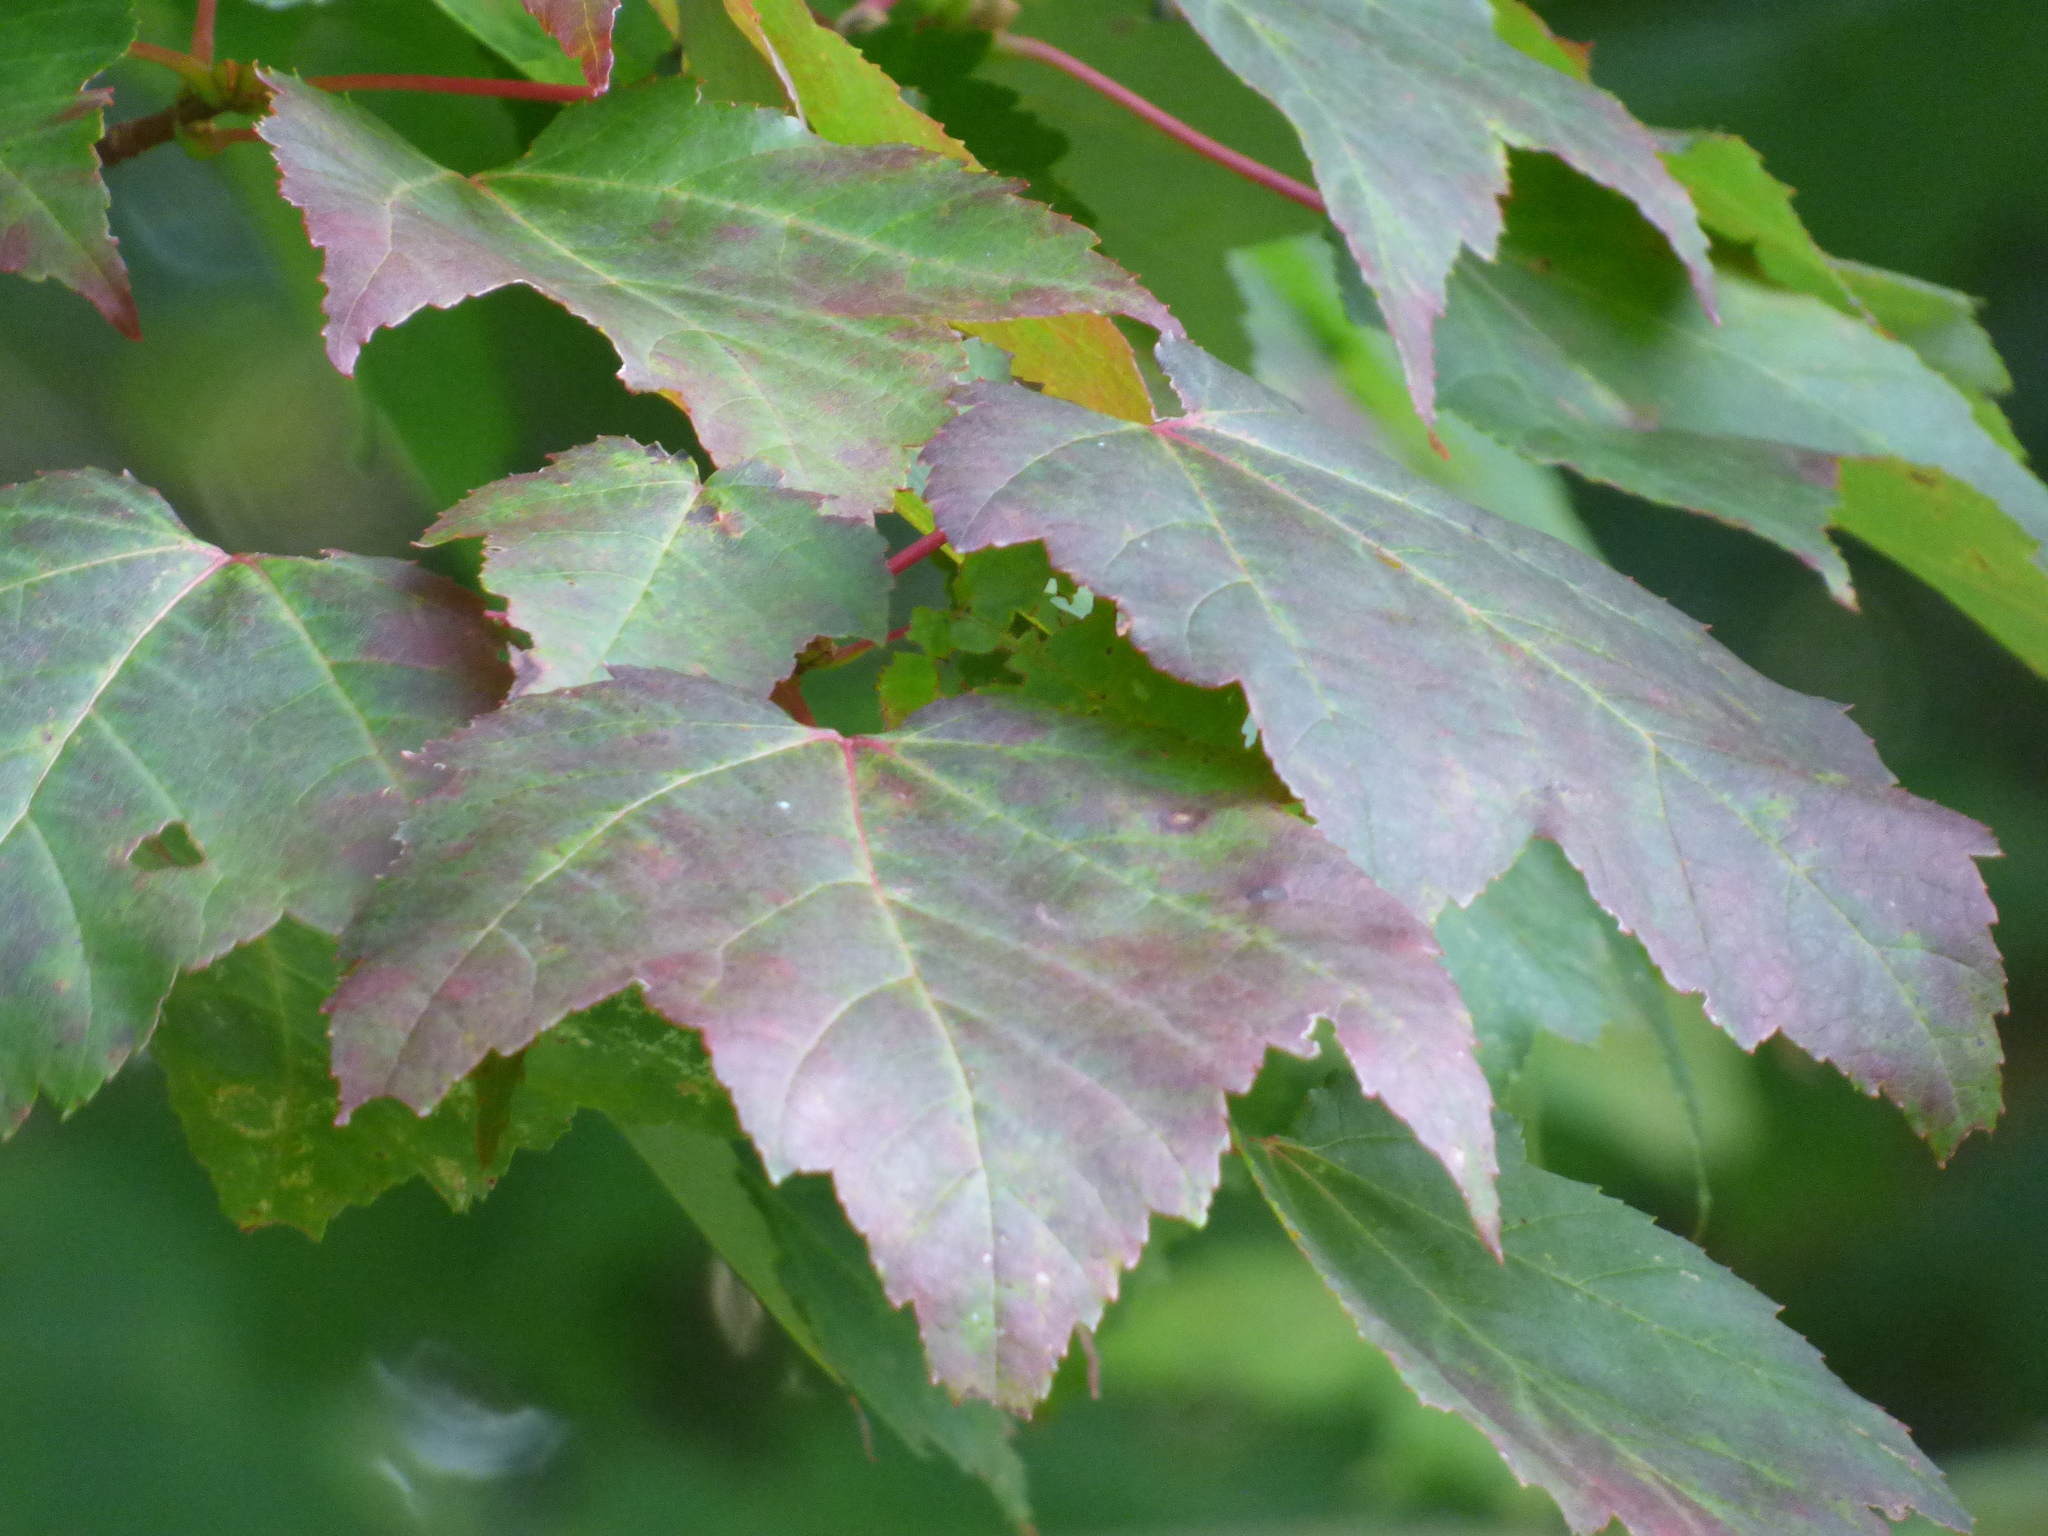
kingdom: Plantae
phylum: Tracheophyta
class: Magnoliopsida
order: Sapindales
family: Sapindaceae
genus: Acer
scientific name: Acer rubrum
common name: Red maple
